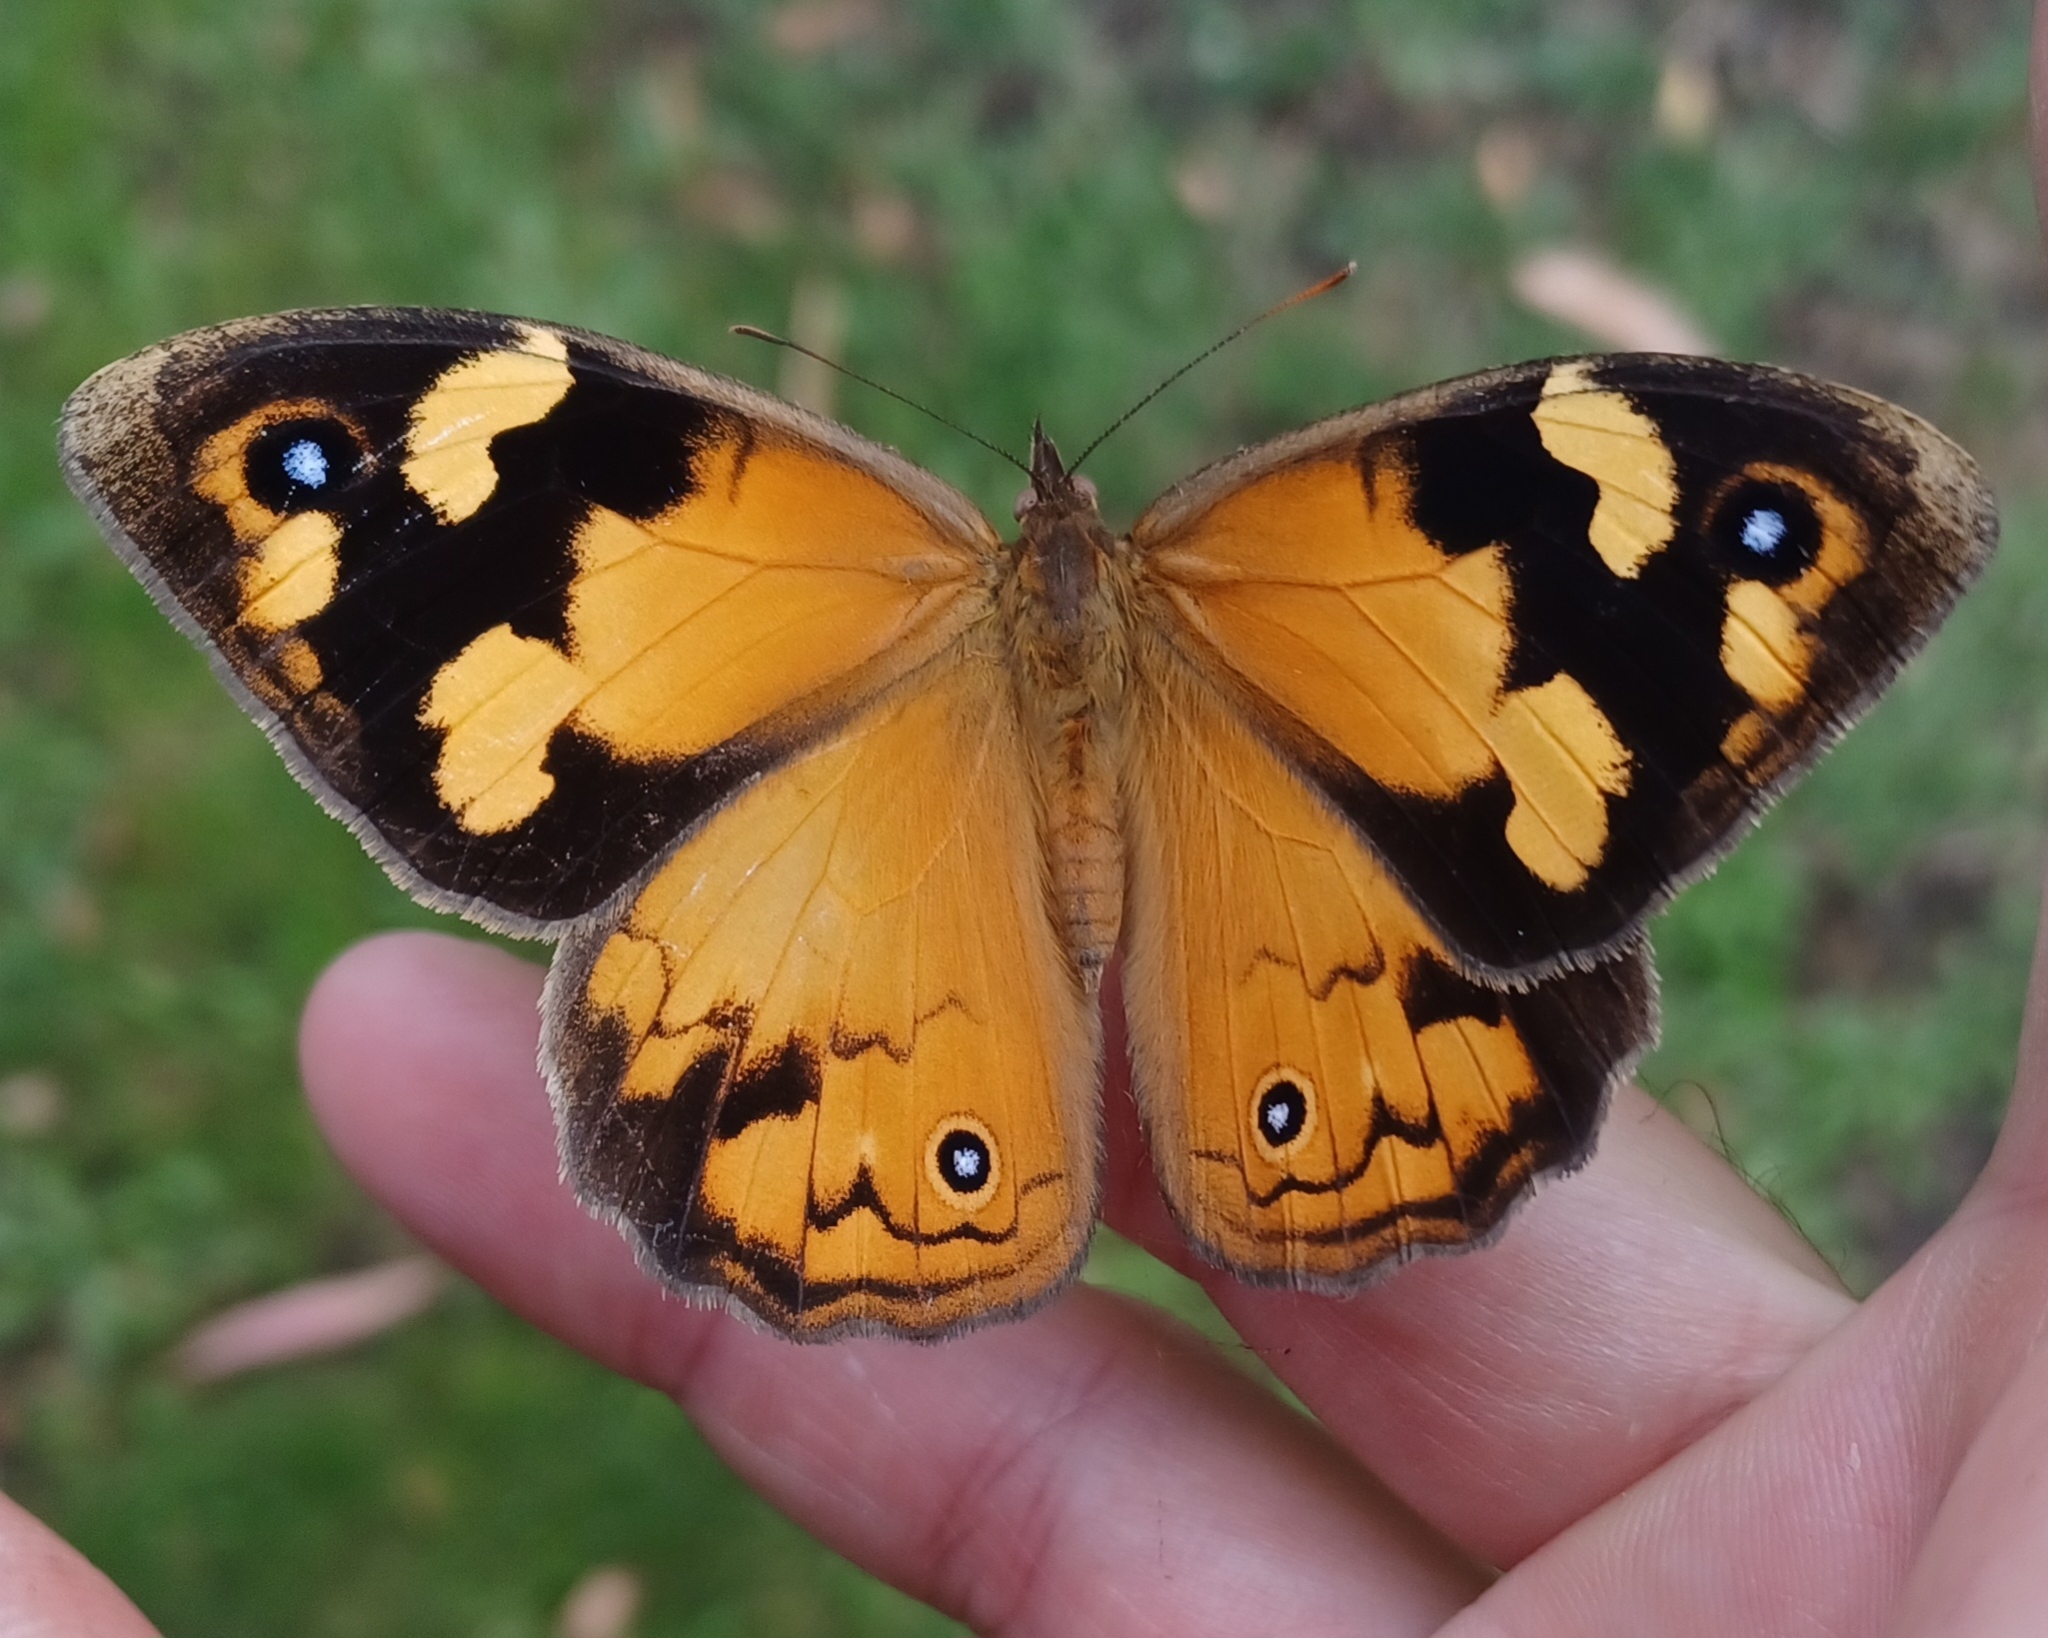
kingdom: Animalia
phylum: Arthropoda
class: Insecta
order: Lepidoptera
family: Nymphalidae
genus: Heteronympha
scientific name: Heteronympha merope
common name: Common brown
